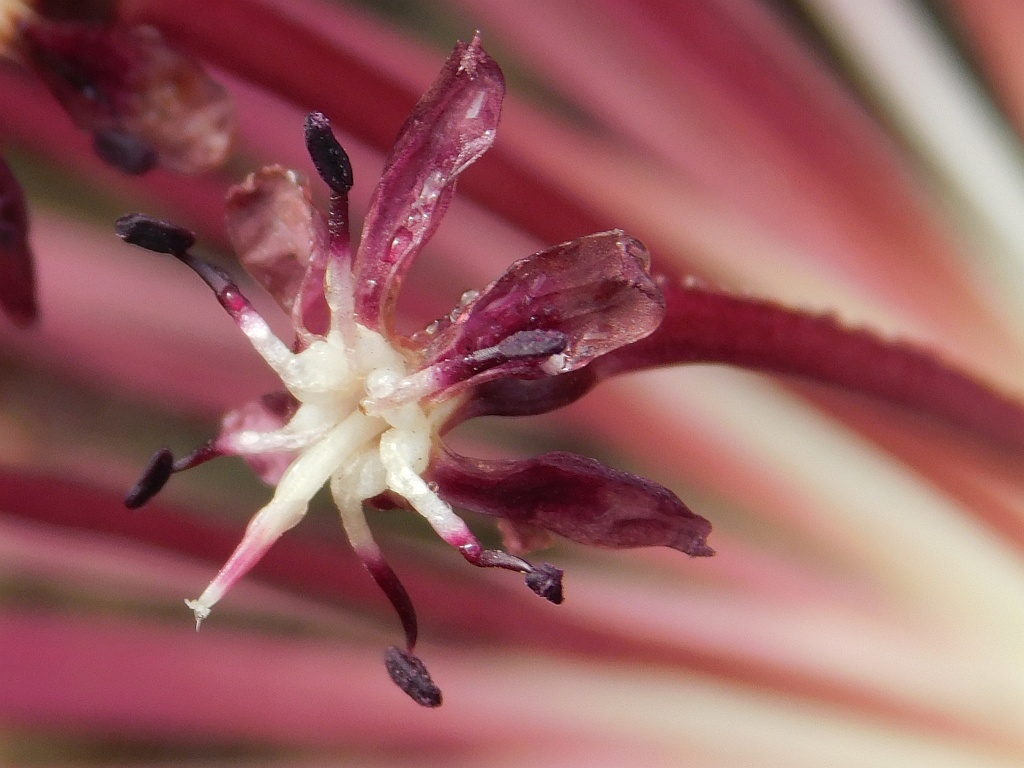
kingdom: Plantae
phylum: Tracheophyta
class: Liliopsida
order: Asparagales
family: Amaryllidaceae
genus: Crossyne
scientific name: Crossyne guttata
